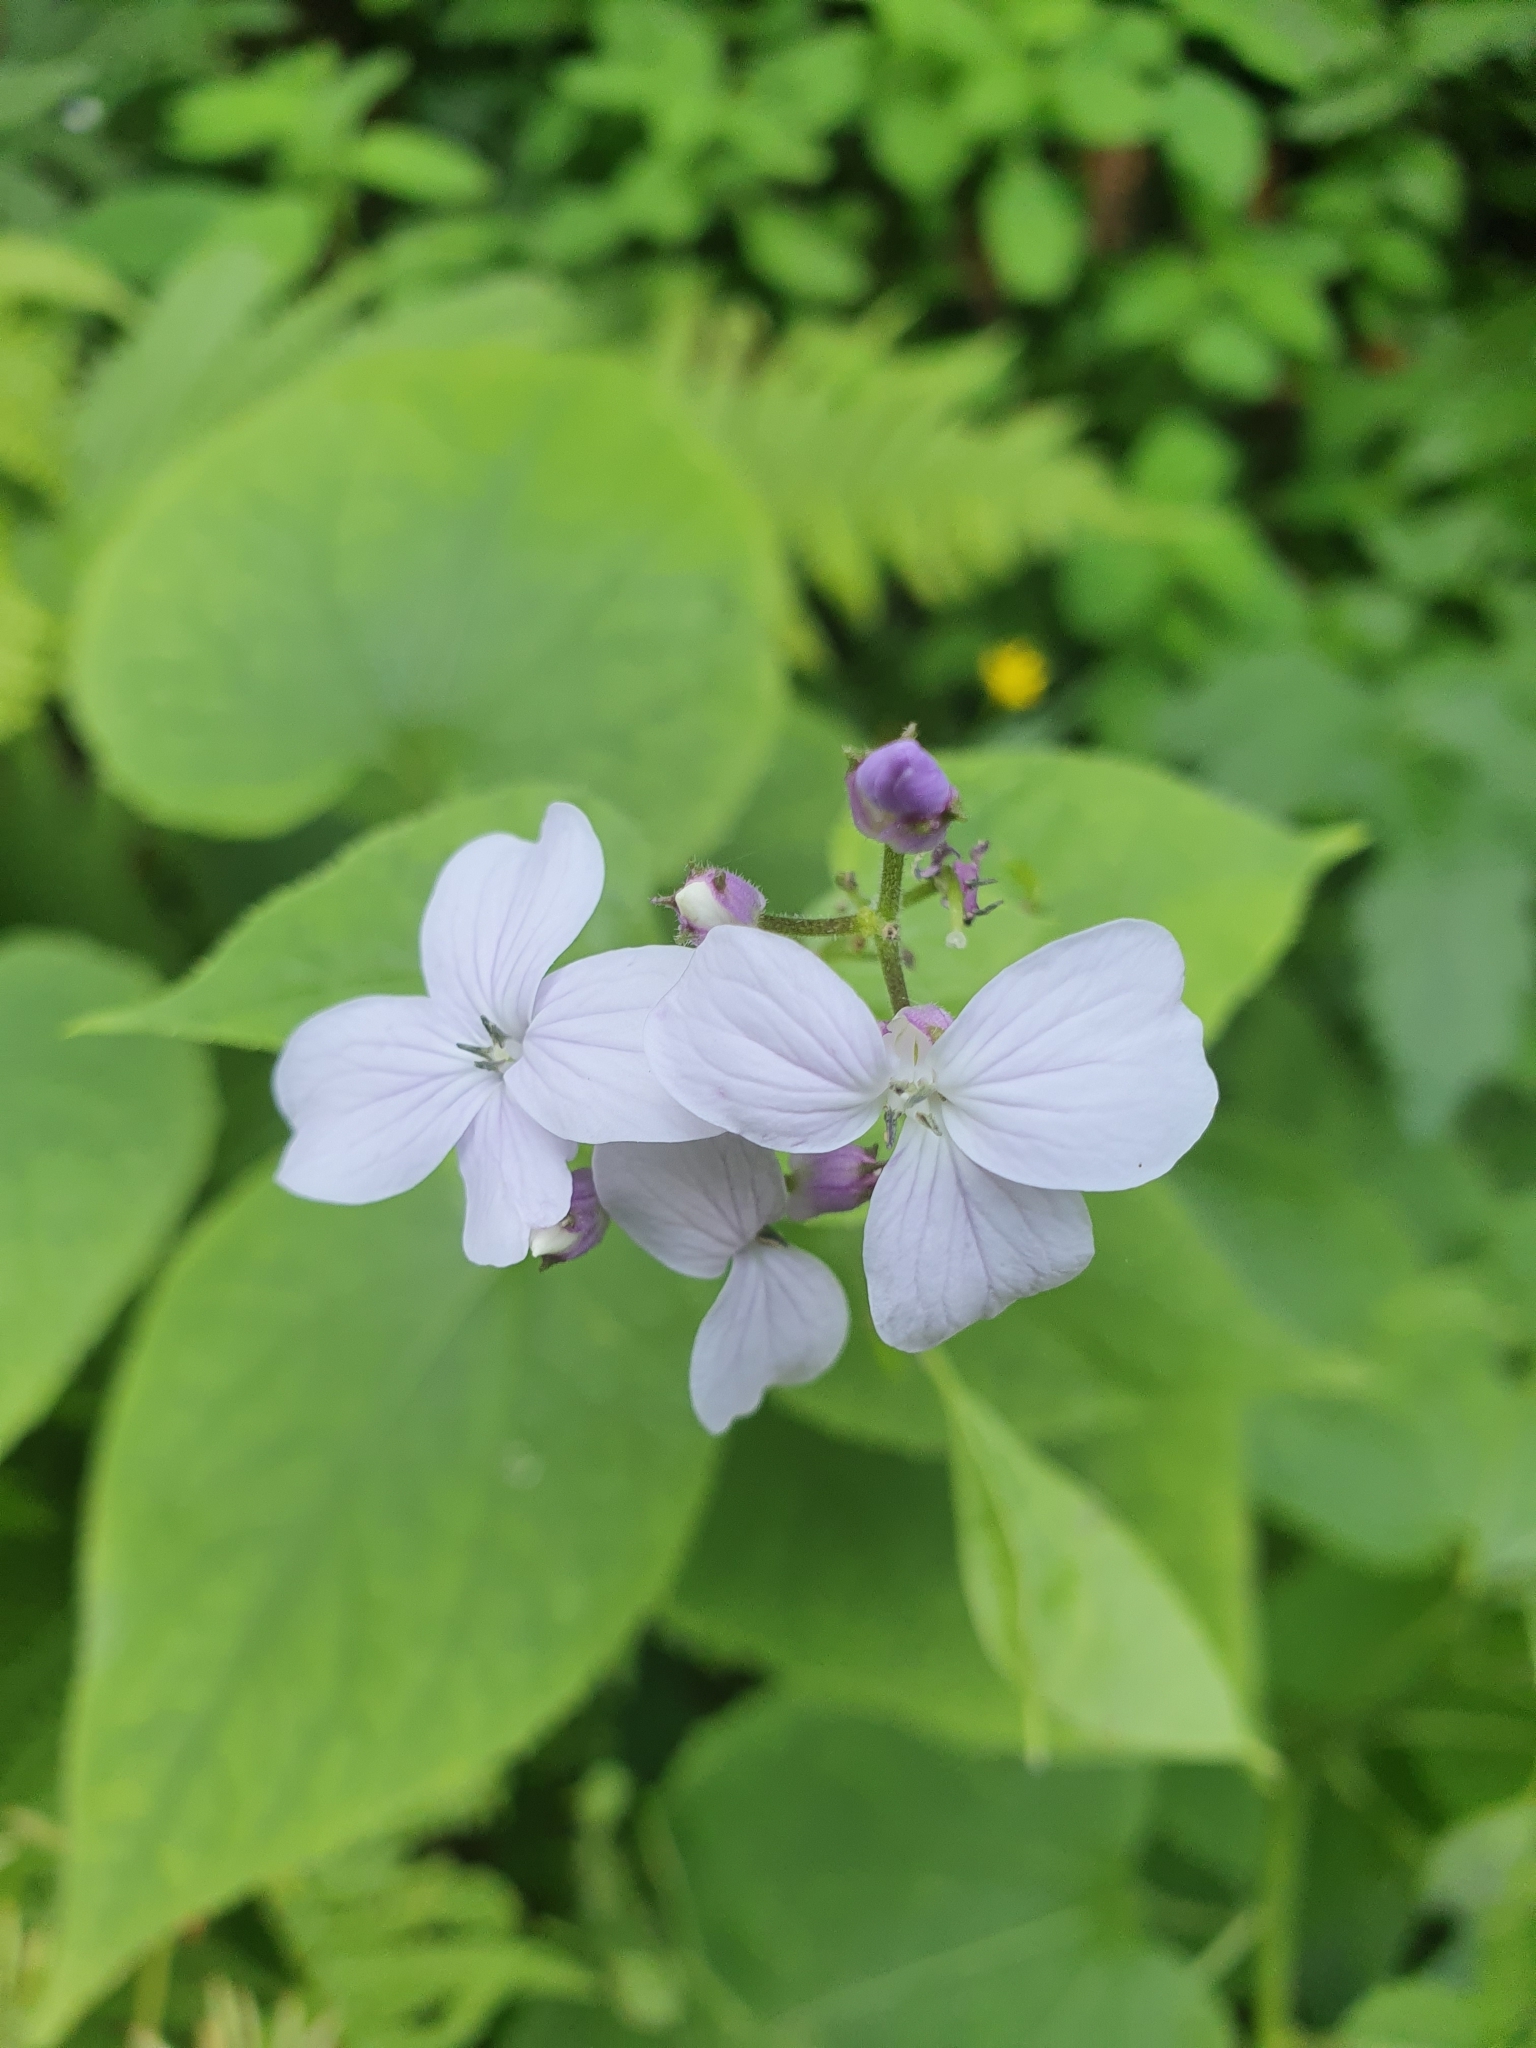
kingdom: Plantae
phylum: Tracheophyta
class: Magnoliopsida
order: Brassicales
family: Brassicaceae
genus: Lunaria
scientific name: Lunaria rediviva
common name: Perennial honesty
